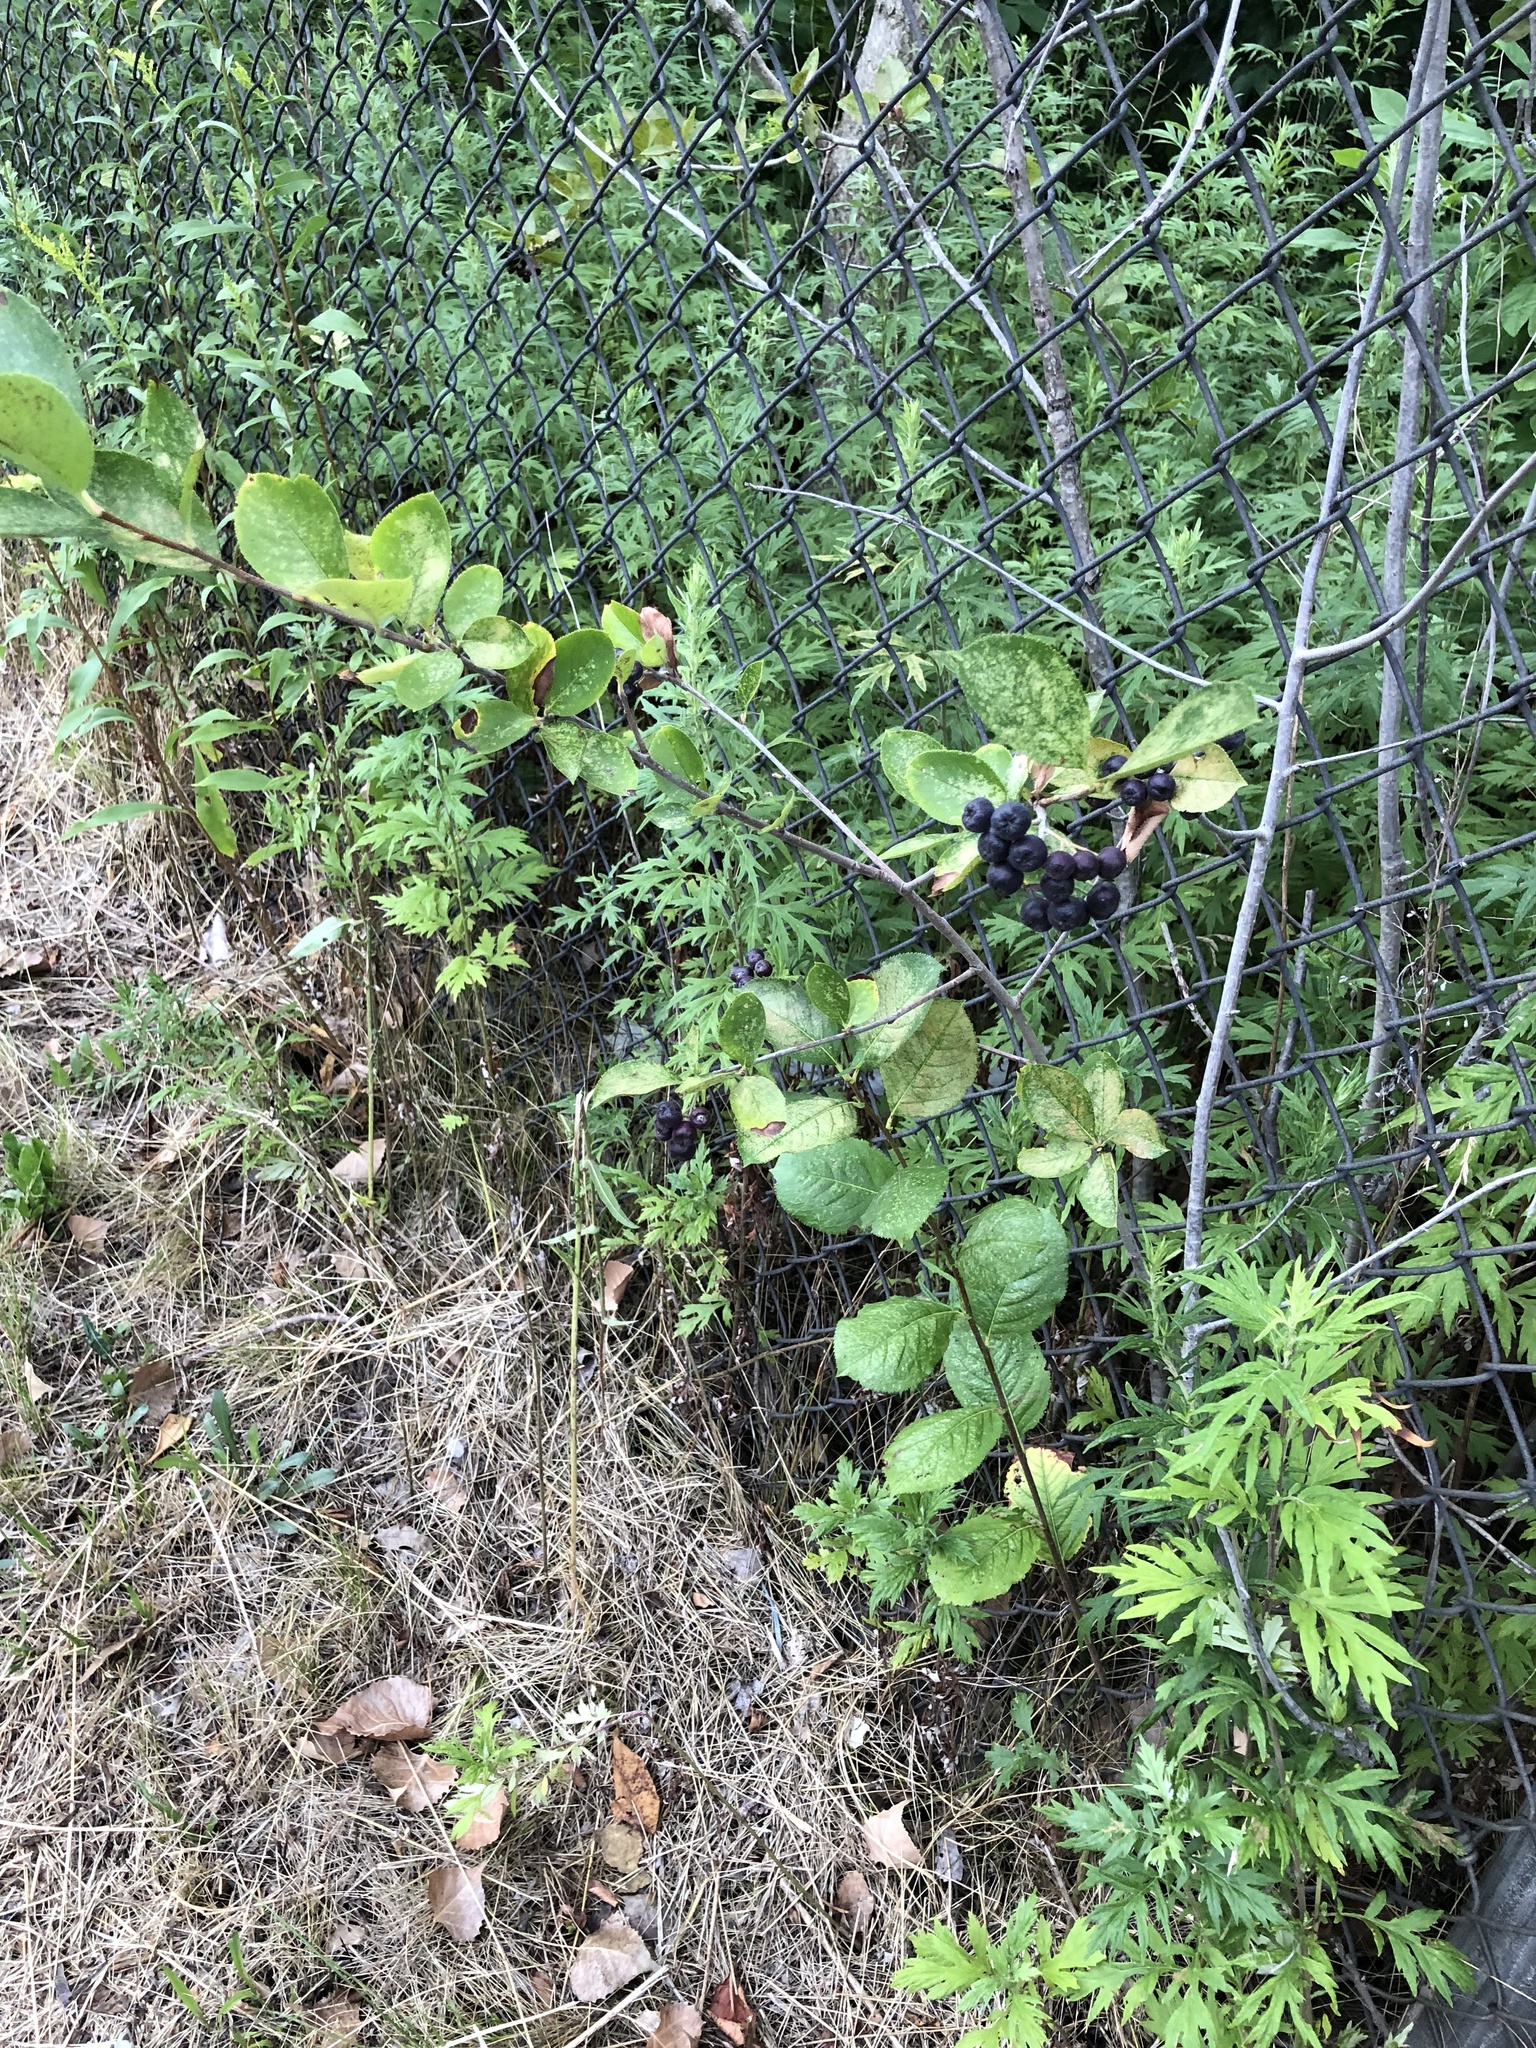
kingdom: Plantae
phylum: Tracheophyta
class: Magnoliopsida
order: Rosales
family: Rosaceae
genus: Aronia
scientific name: Aronia melanocarpa
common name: Black chokeberry
